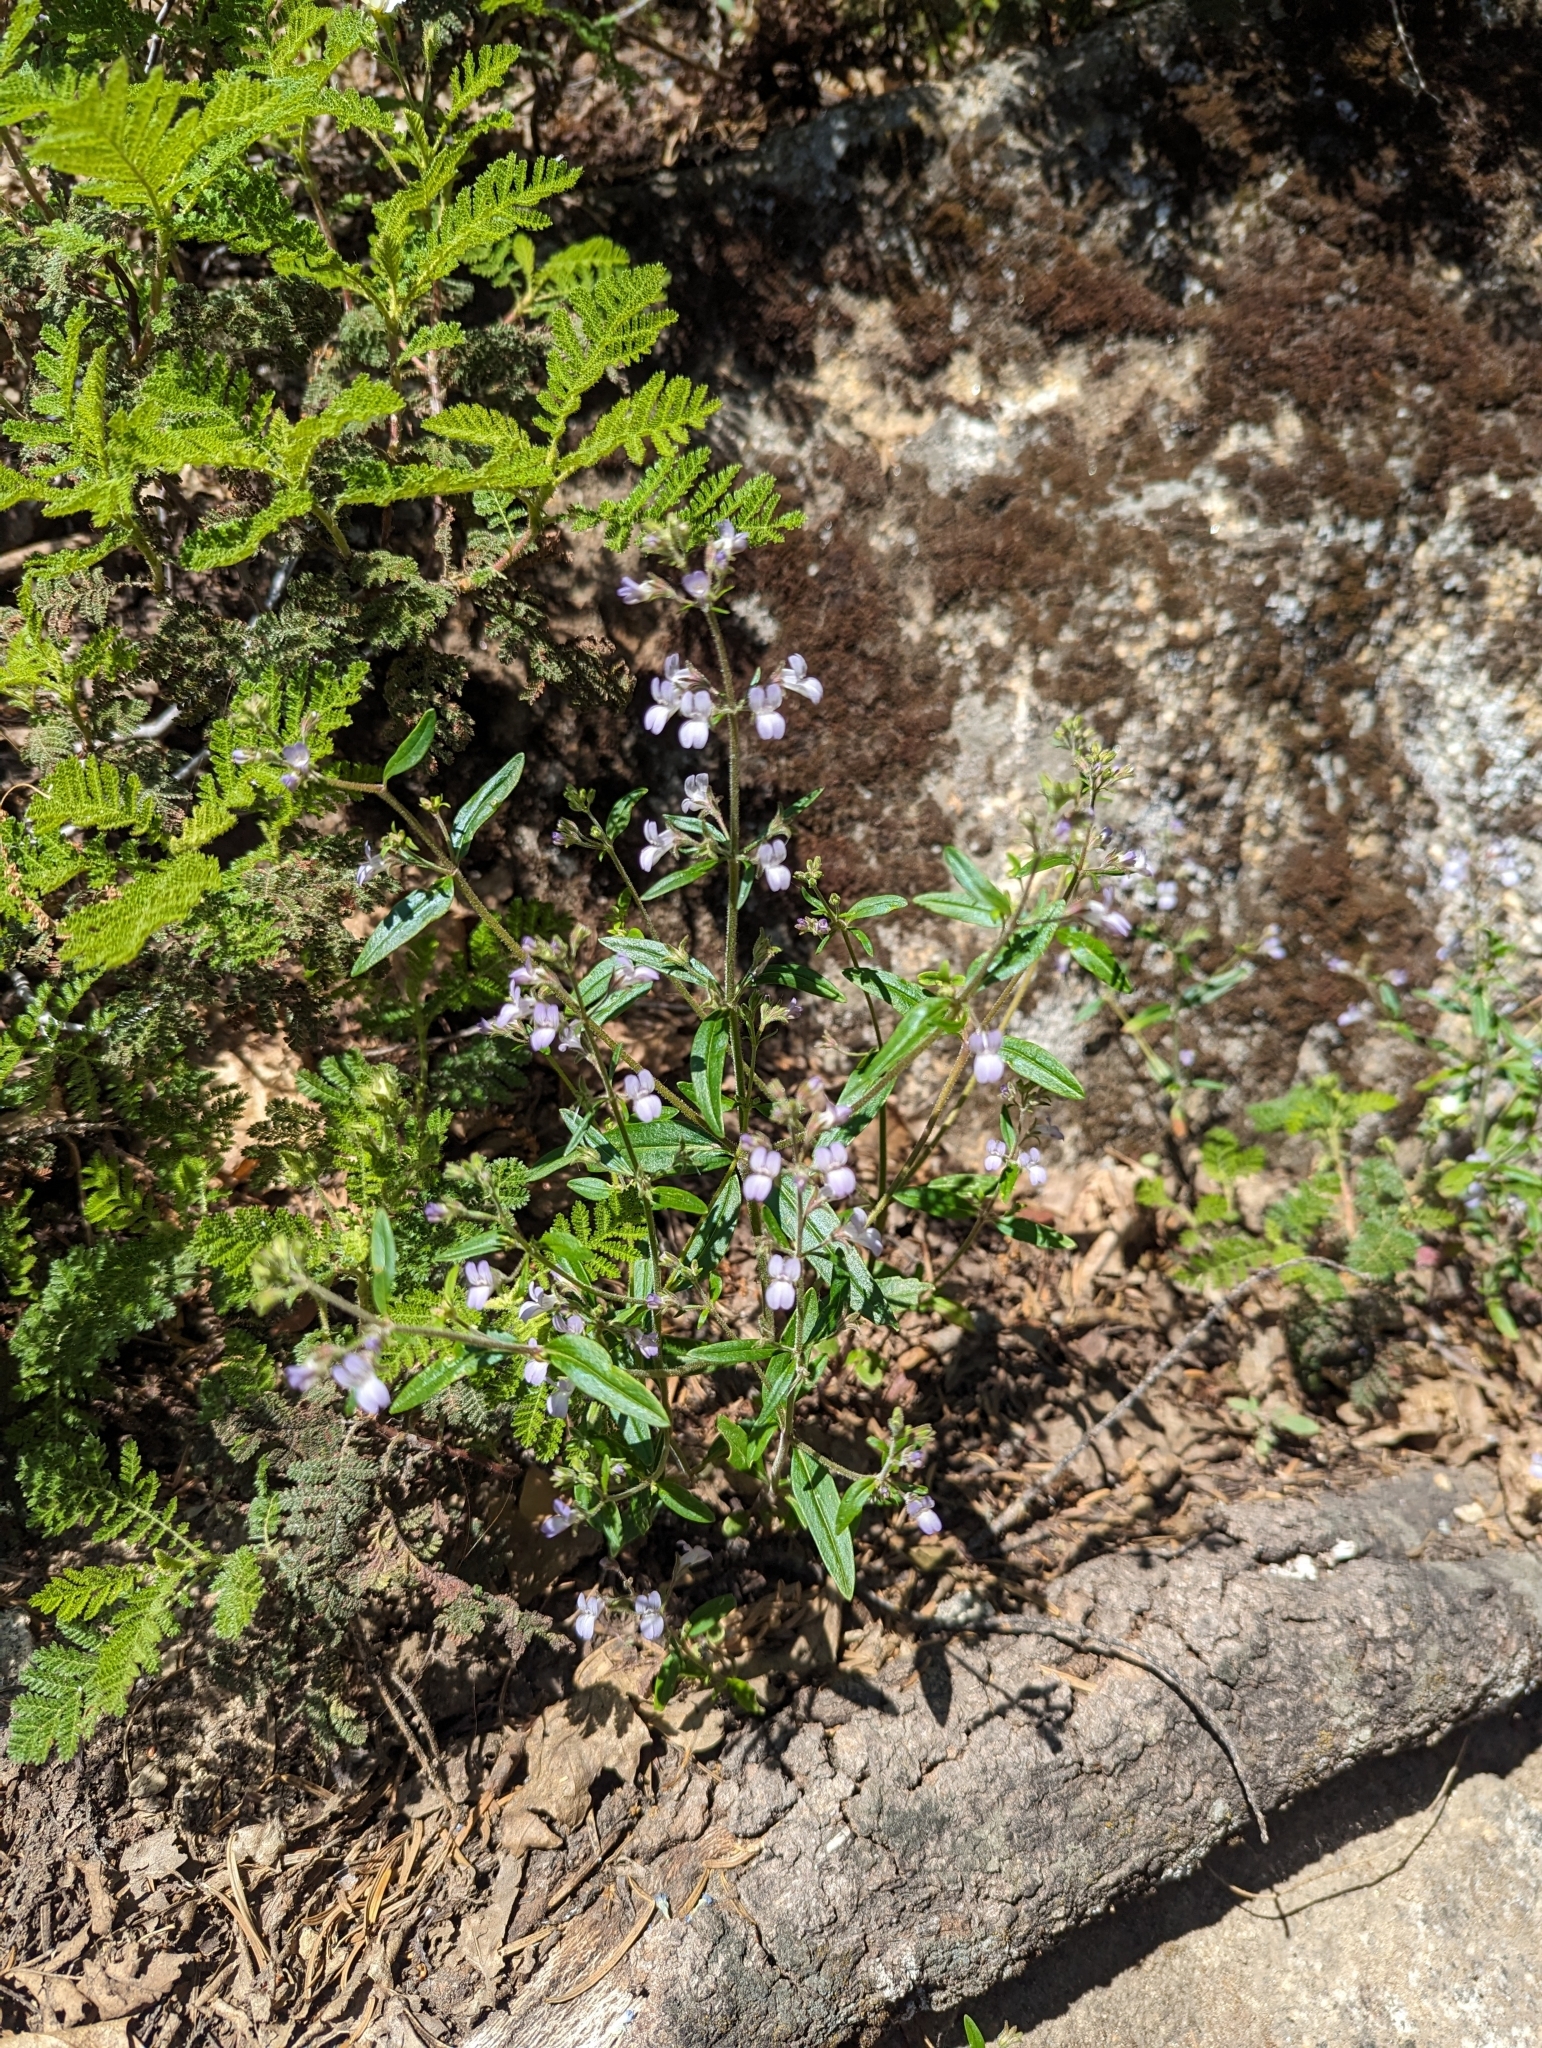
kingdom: Plantae
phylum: Tracheophyta
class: Magnoliopsida
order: Lamiales
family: Plantaginaceae
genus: Collinsia
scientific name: Collinsia childii
